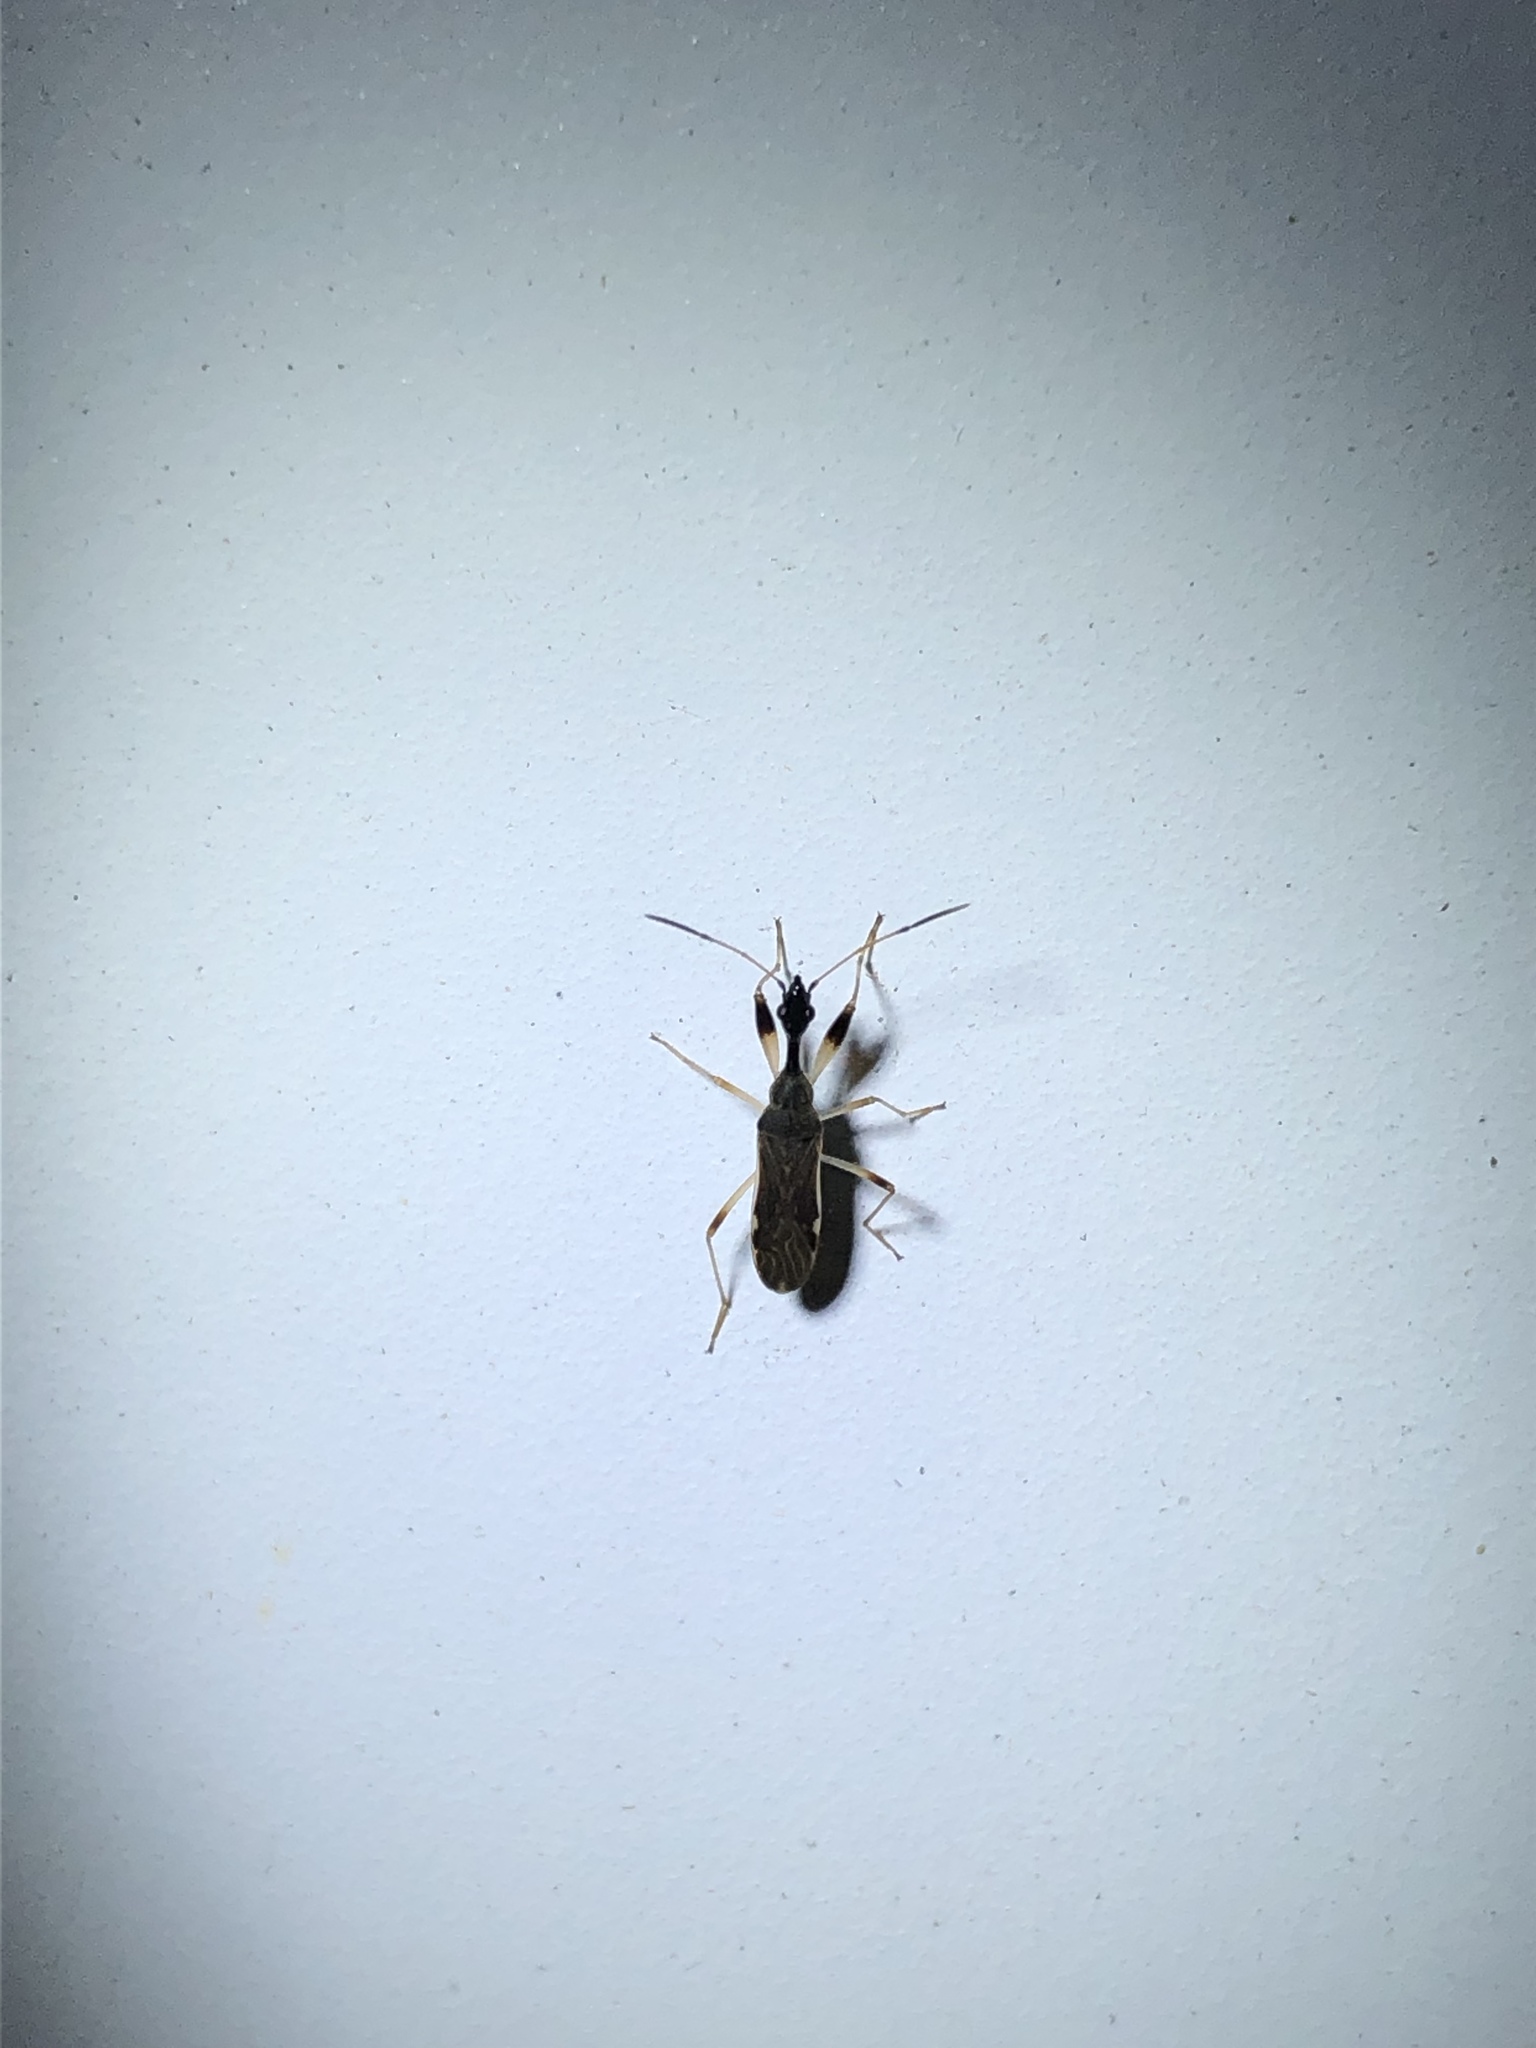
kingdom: Animalia
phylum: Arthropoda
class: Insecta
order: Hemiptera
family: Rhyparochromidae
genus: Myodocha
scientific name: Myodocha serripes
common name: Long-necked seed bug
